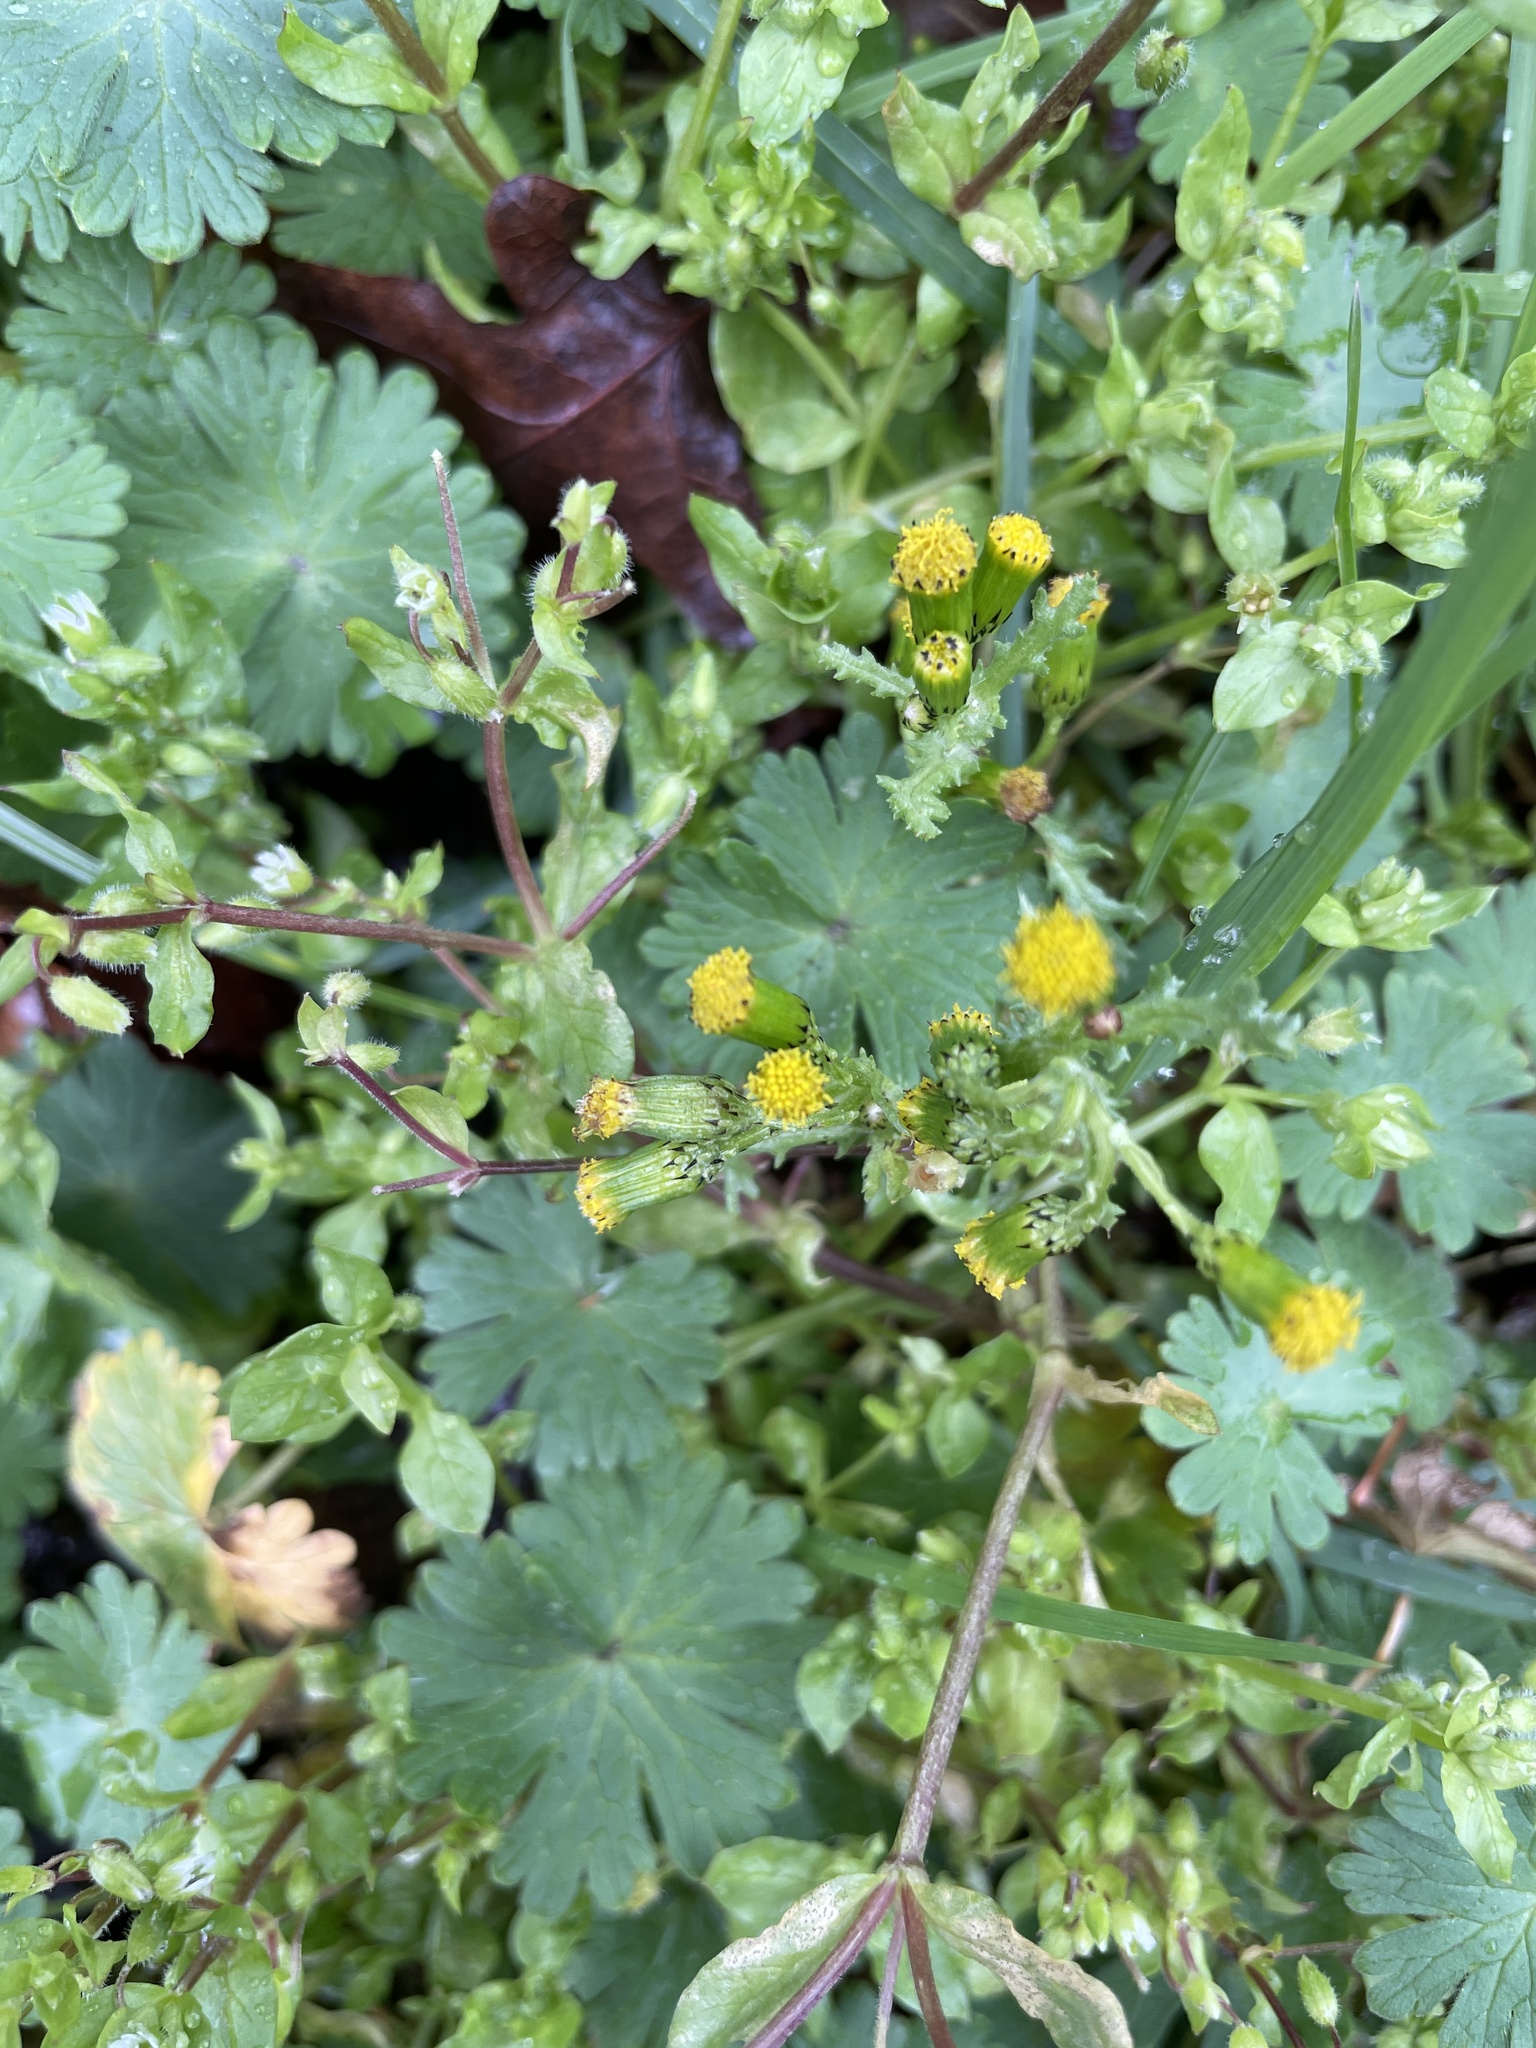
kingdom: Plantae
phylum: Tracheophyta
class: Magnoliopsida
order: Asterales
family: Asteraceae
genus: Senecio
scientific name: Senecio vulgaris
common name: Old-man-in-the-spring
